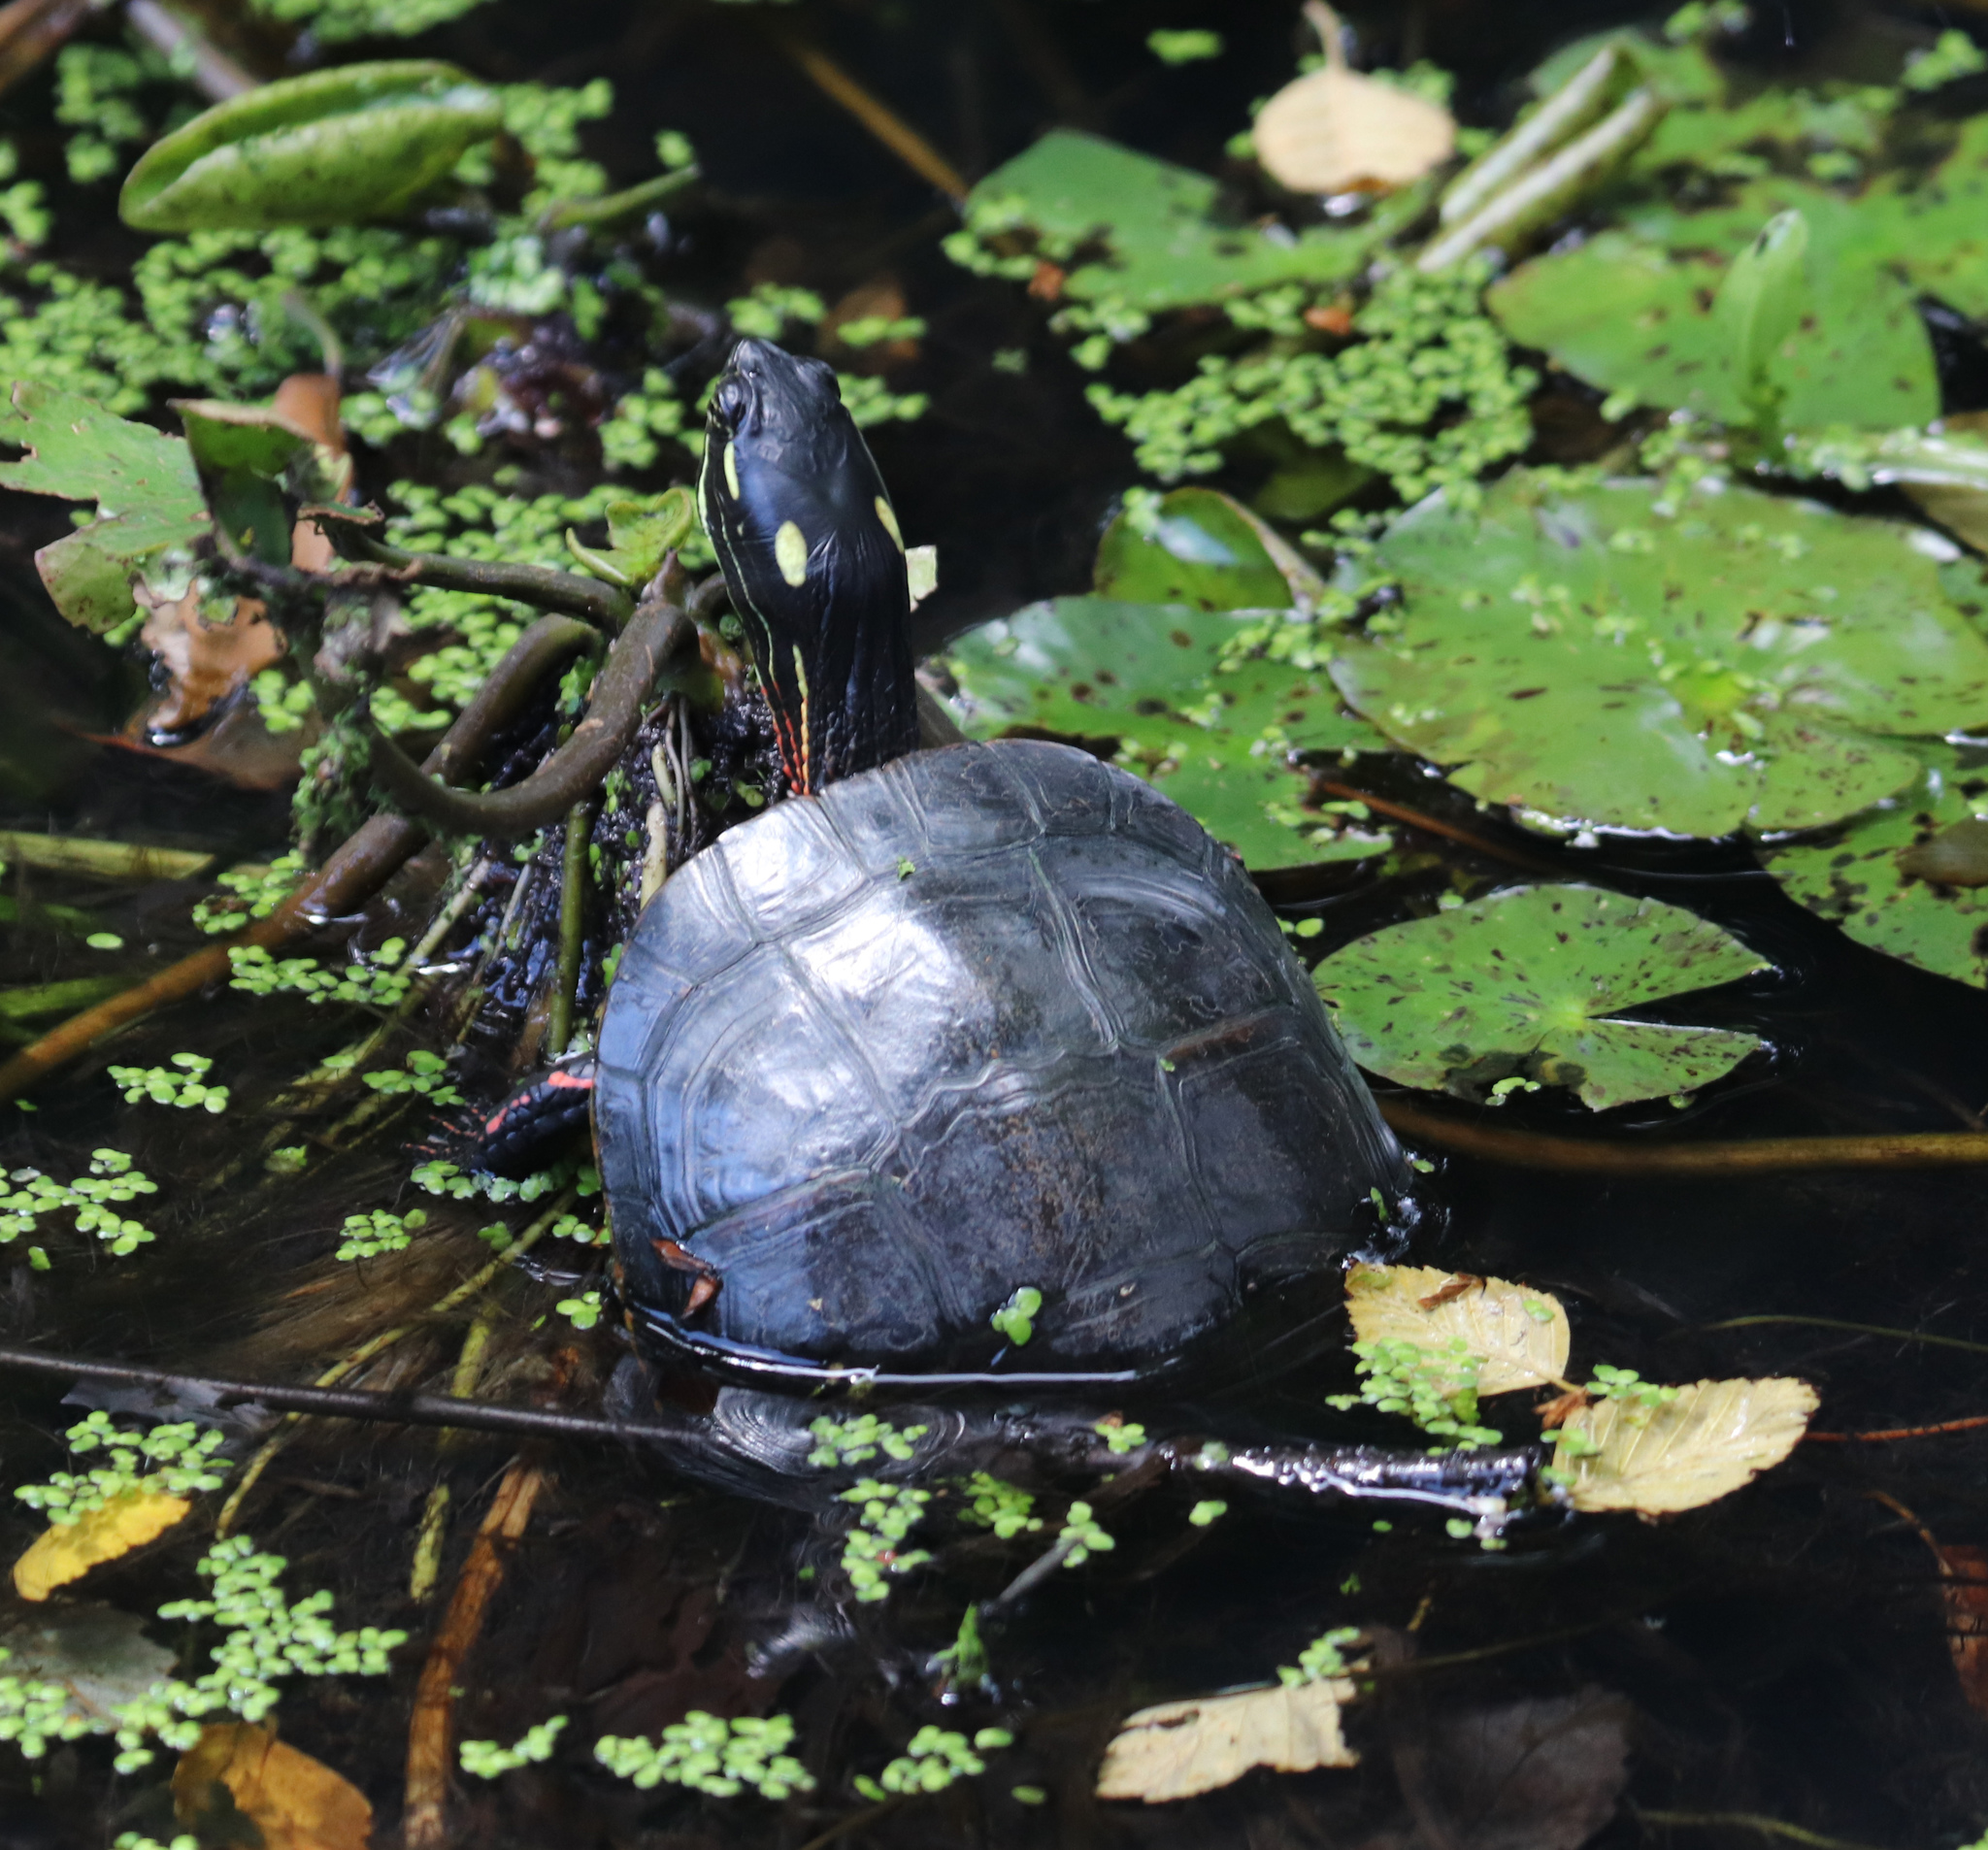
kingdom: Animalia
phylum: Chordata
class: Testudines
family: Emydidae
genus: Chrysemys
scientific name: Chrysemys picta
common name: Painted turtle
